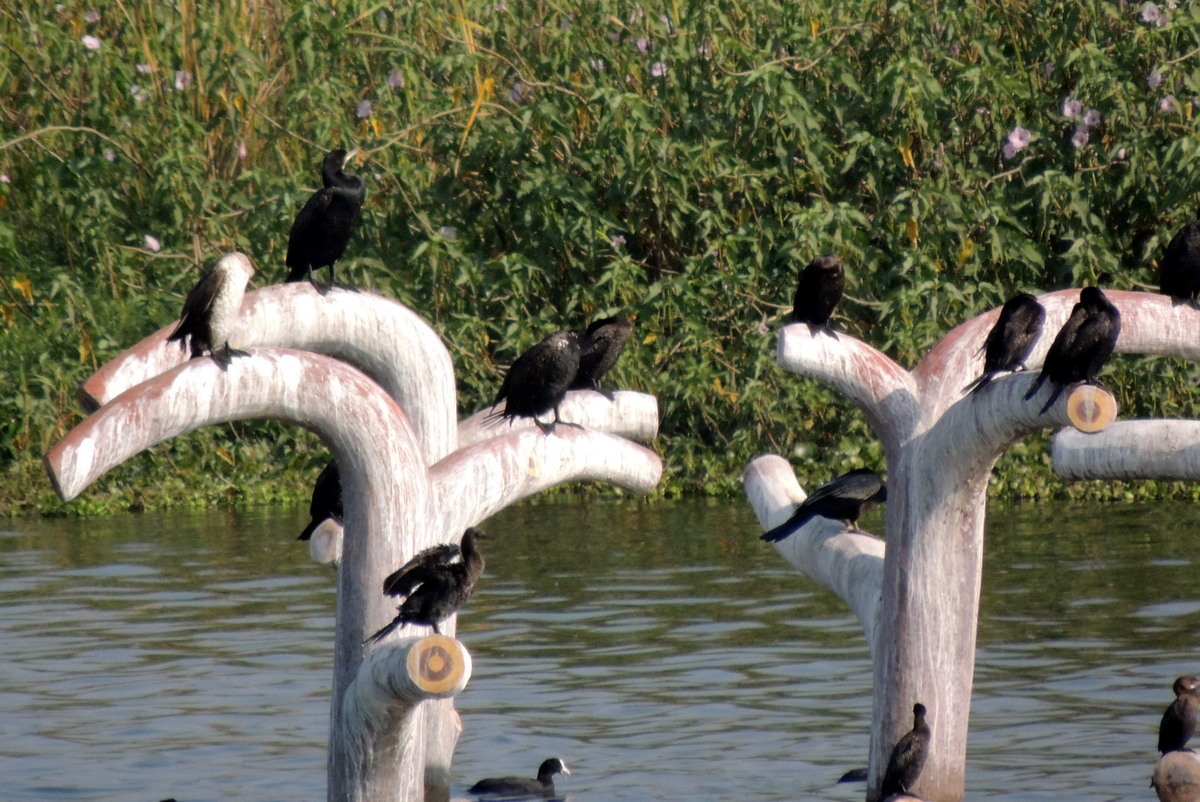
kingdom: Animalia
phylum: Chordata
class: Aves
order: Suliformes
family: Phalacrocoracidae
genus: Phalacrocorax
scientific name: Phalacrocorax carbo
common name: Great cormorant
